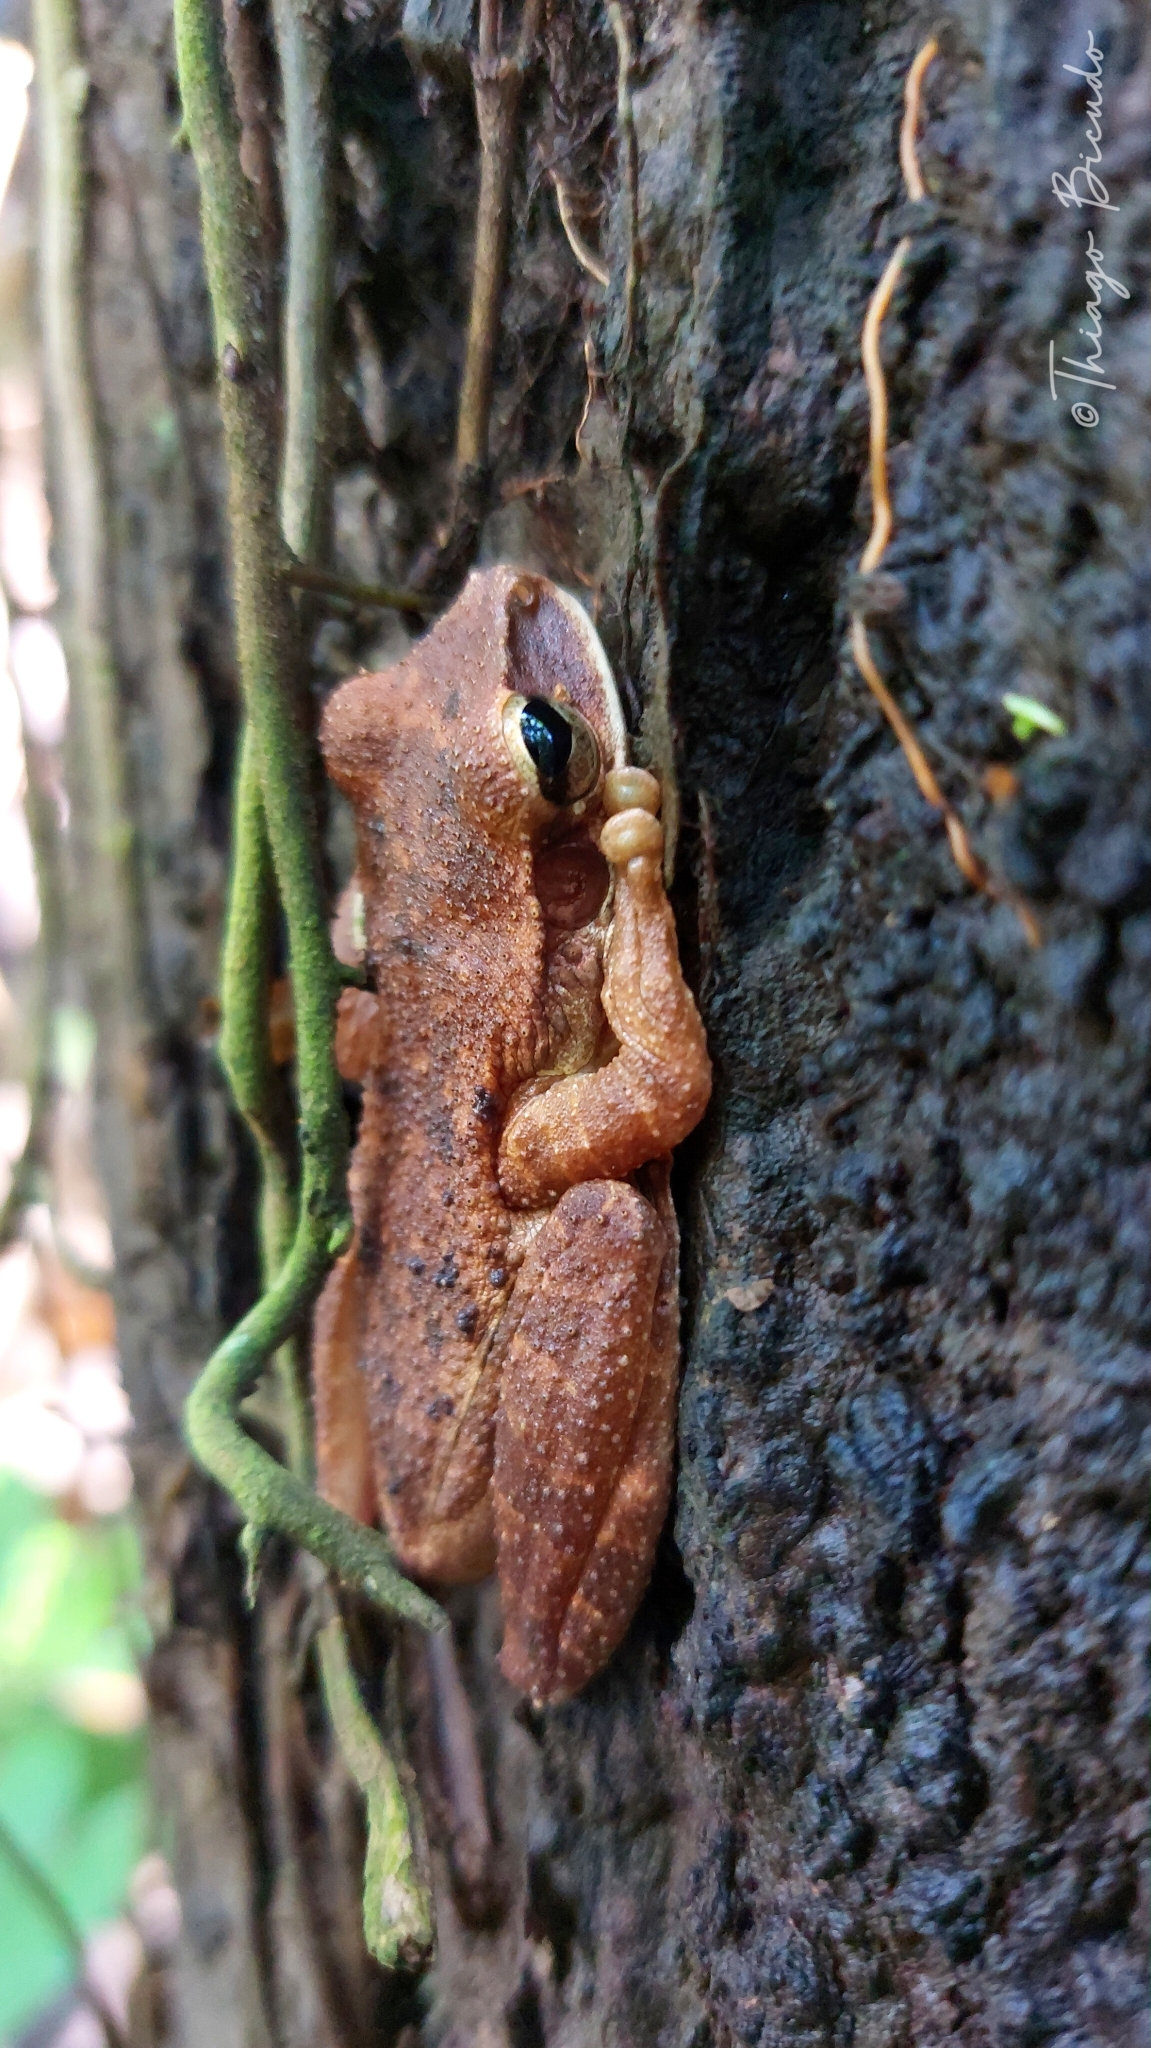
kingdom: Animalia
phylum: Chordata
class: Amphibia
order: Anura
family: Hylidae
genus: Trachycephalus
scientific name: Trachycephalus typhonius
